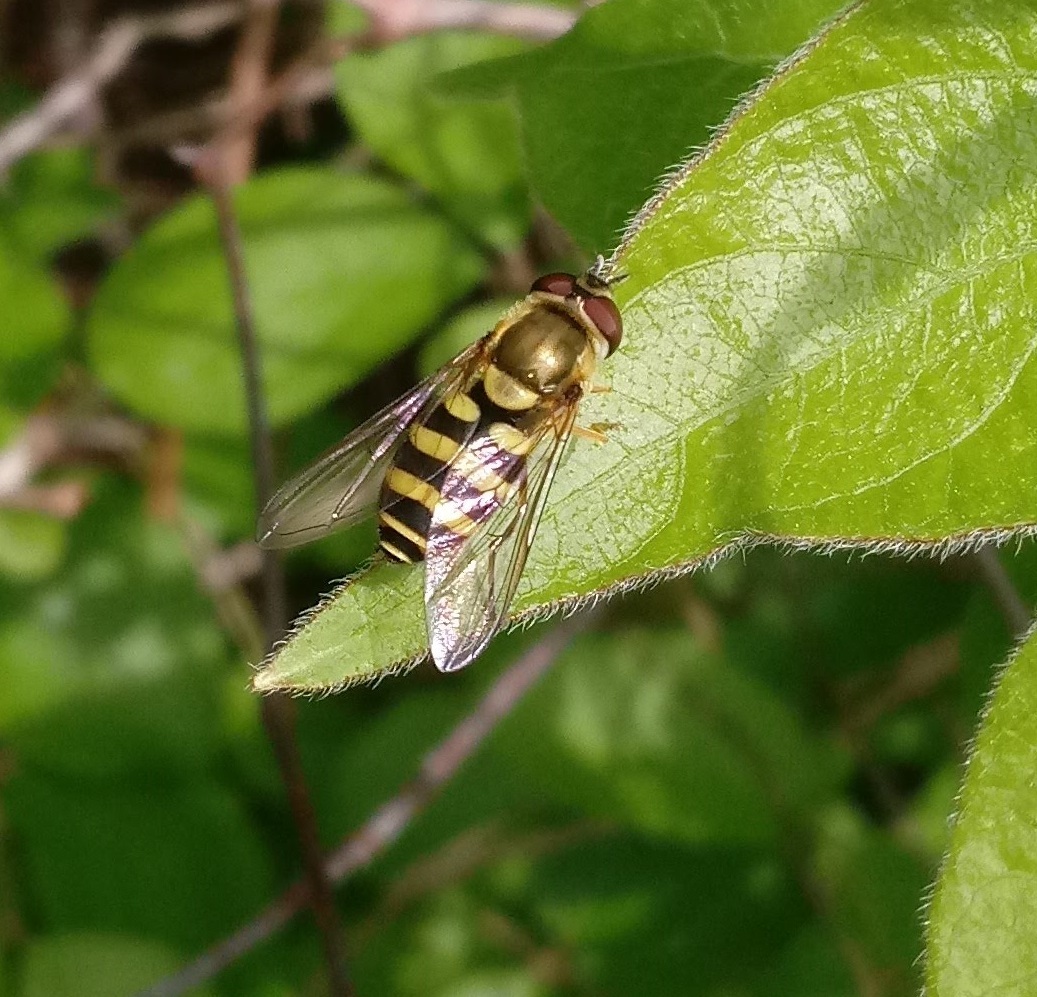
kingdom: Animalia
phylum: Arthropoda
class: Insecta
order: Diptera
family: Syrphidae
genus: Syrphus
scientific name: Syrphus
